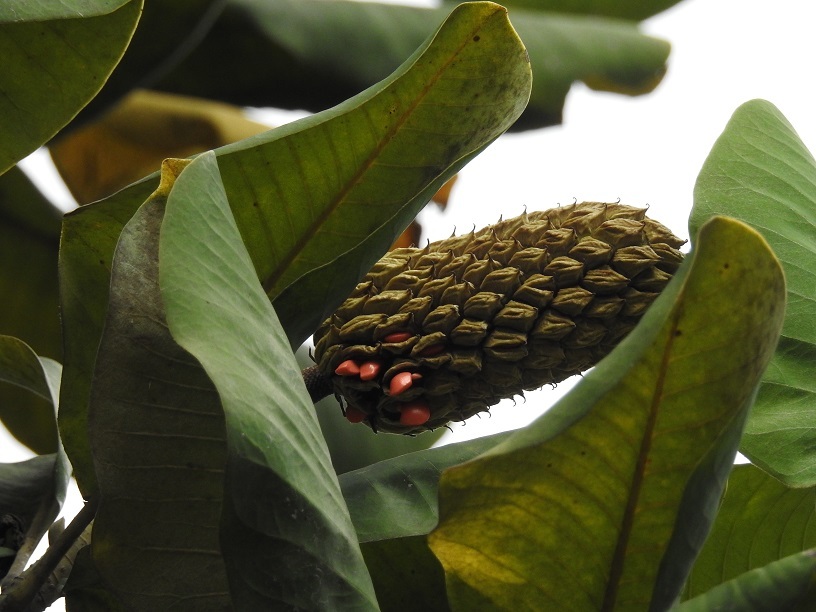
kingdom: Plantae
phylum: Tracheophyta
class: Magnoliopsida
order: Magnoliales
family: Magnoliaceae
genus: Magnolia
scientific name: Magnolia sharpii
